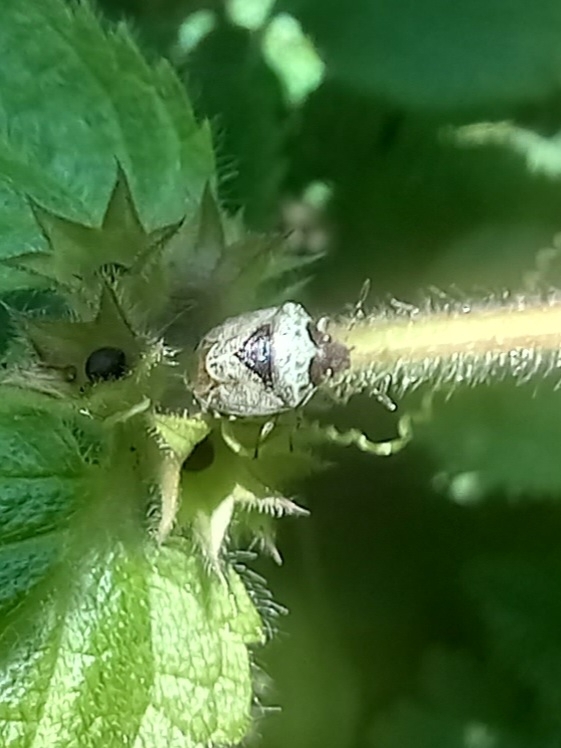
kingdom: Animalia
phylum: Arthropoda
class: Insecta
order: Hemiptera
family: Pentatomidae
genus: Eysarcoris
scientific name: Eysarcoris venustissimus
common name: Woundwort shieldbug
